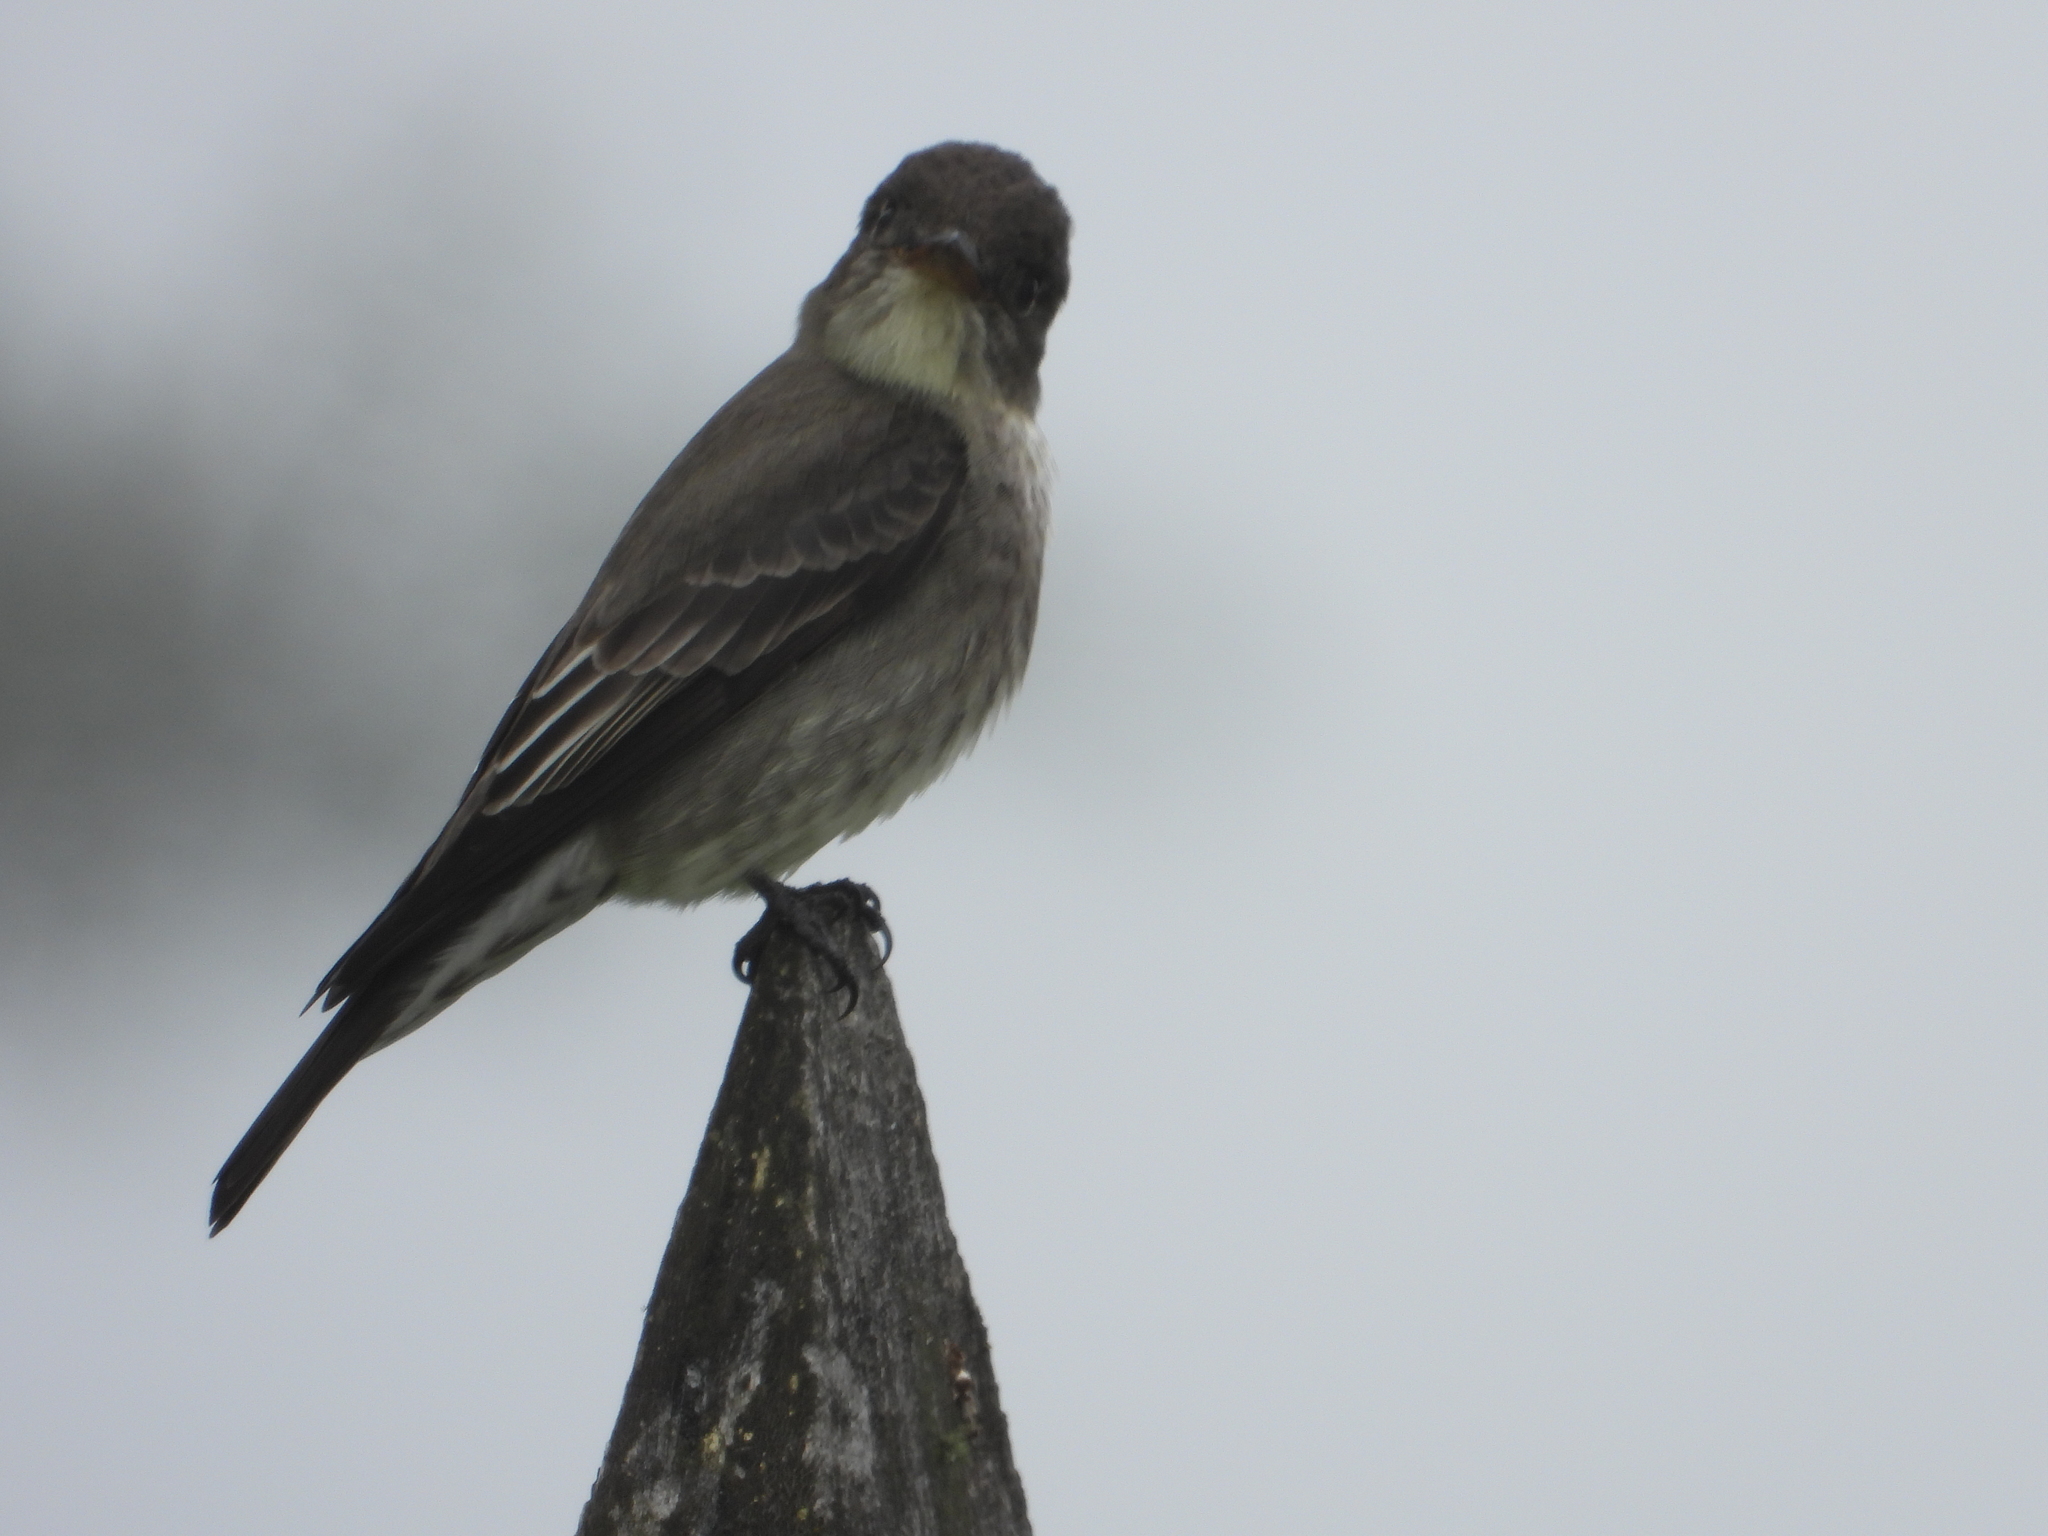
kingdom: Animalia
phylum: Chordata
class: Aves
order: Passeriformes
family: Tyrannidae
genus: Contopus
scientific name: Contopus cooperi
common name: Olive-sided flycatcher
